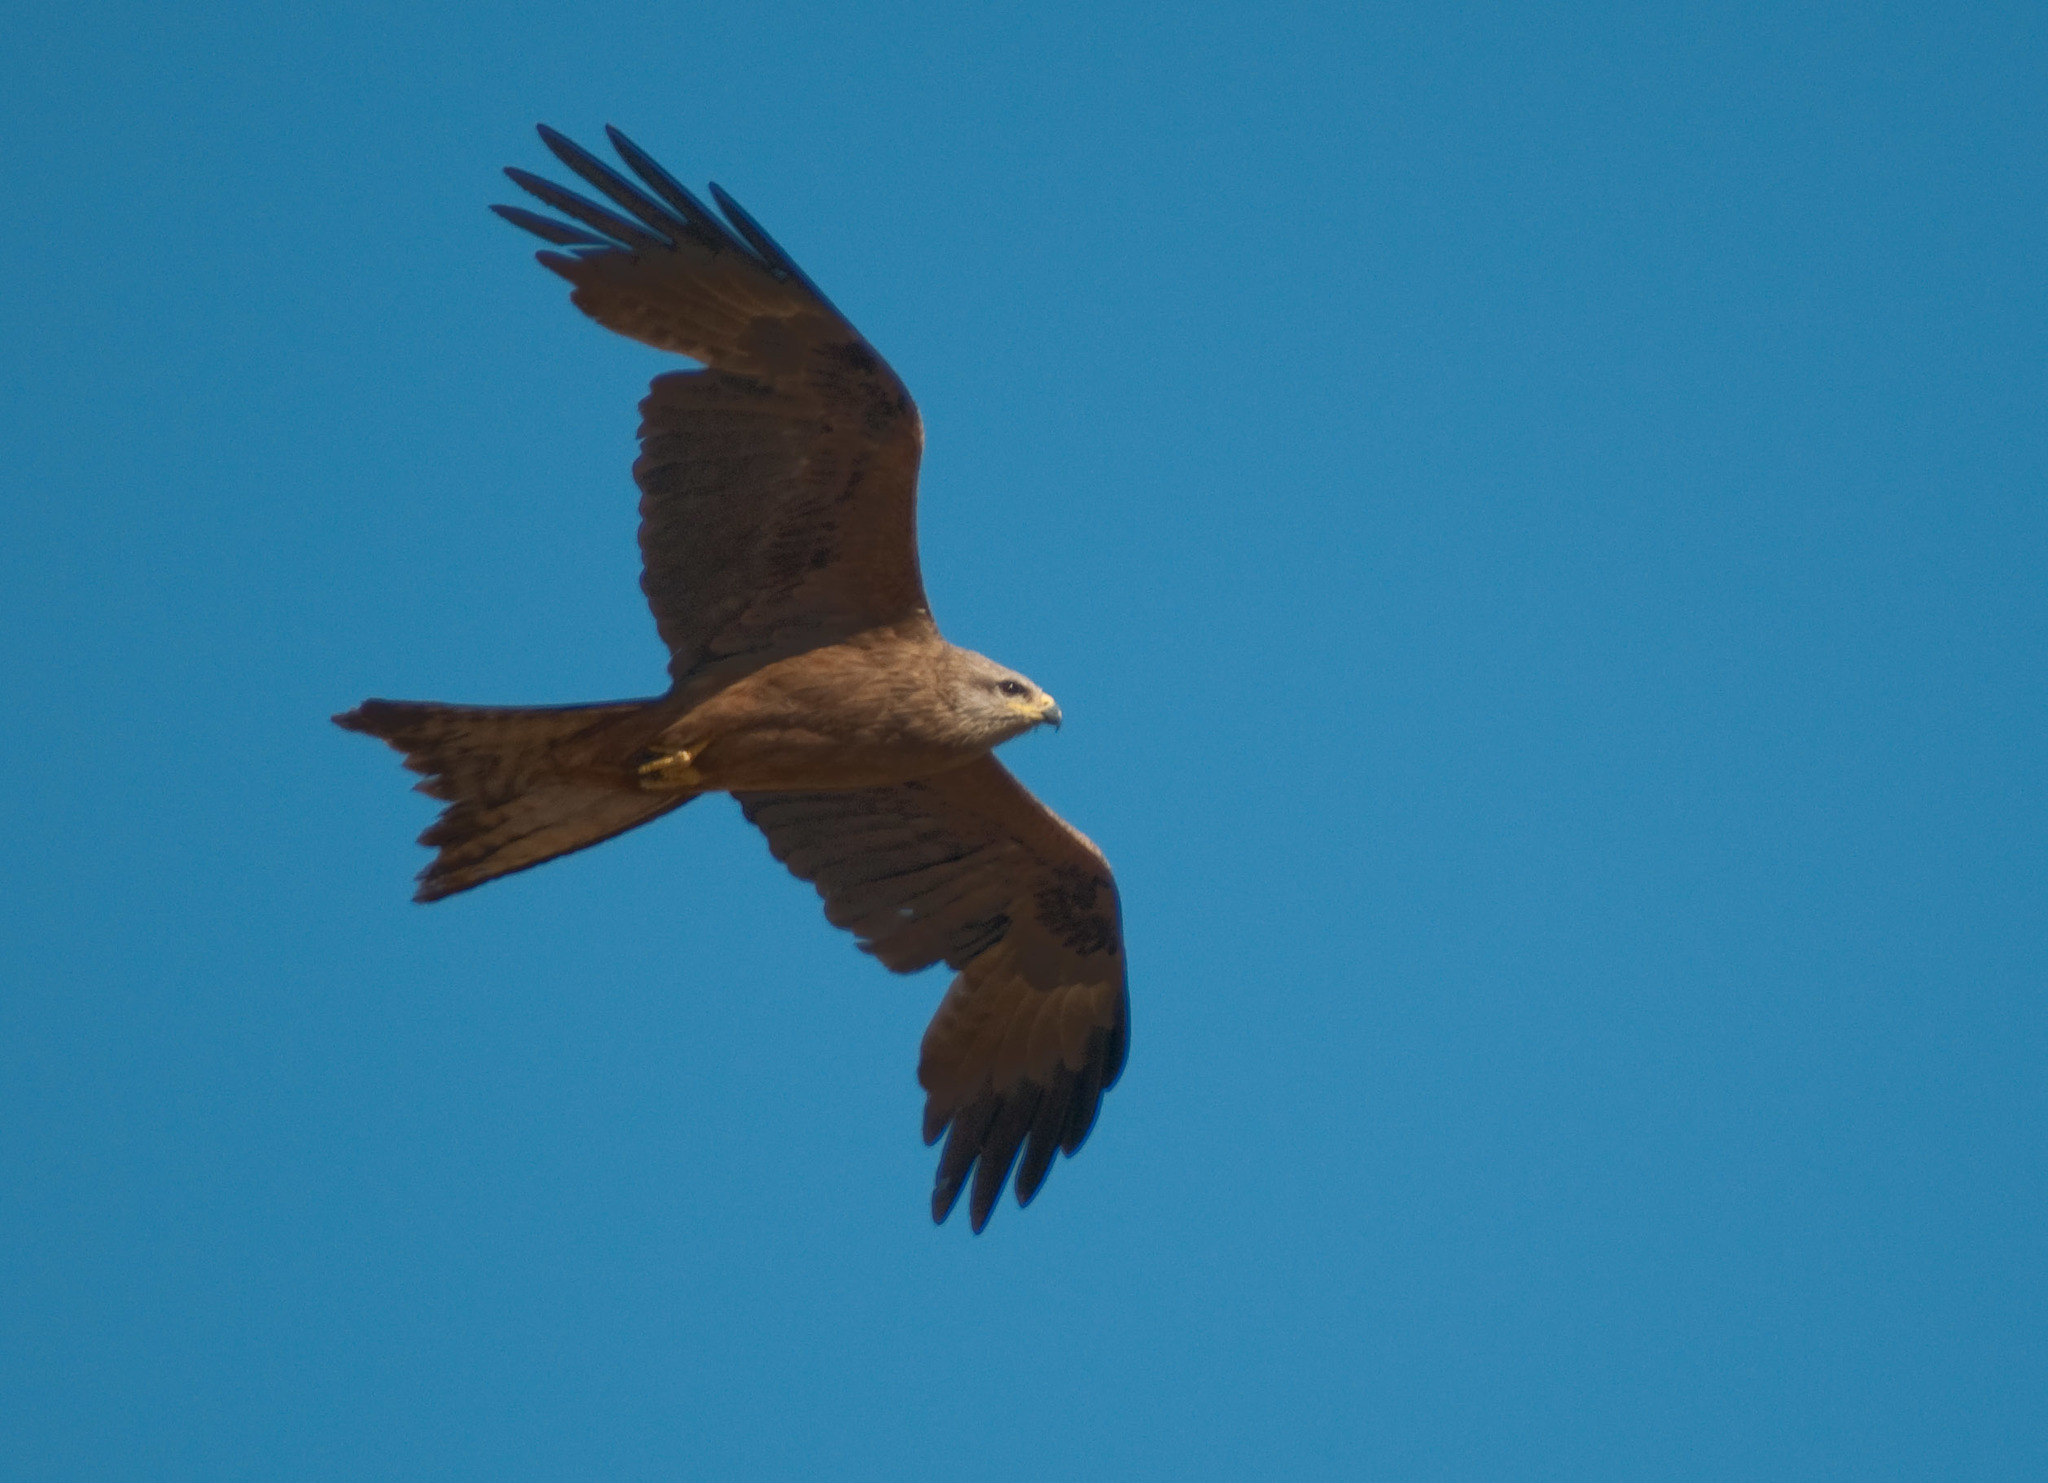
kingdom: Animalia
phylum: Chordata
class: Aves
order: Accipitriformes
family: Accipitridae
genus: Milvus
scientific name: Milvus migrans
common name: Black kite
